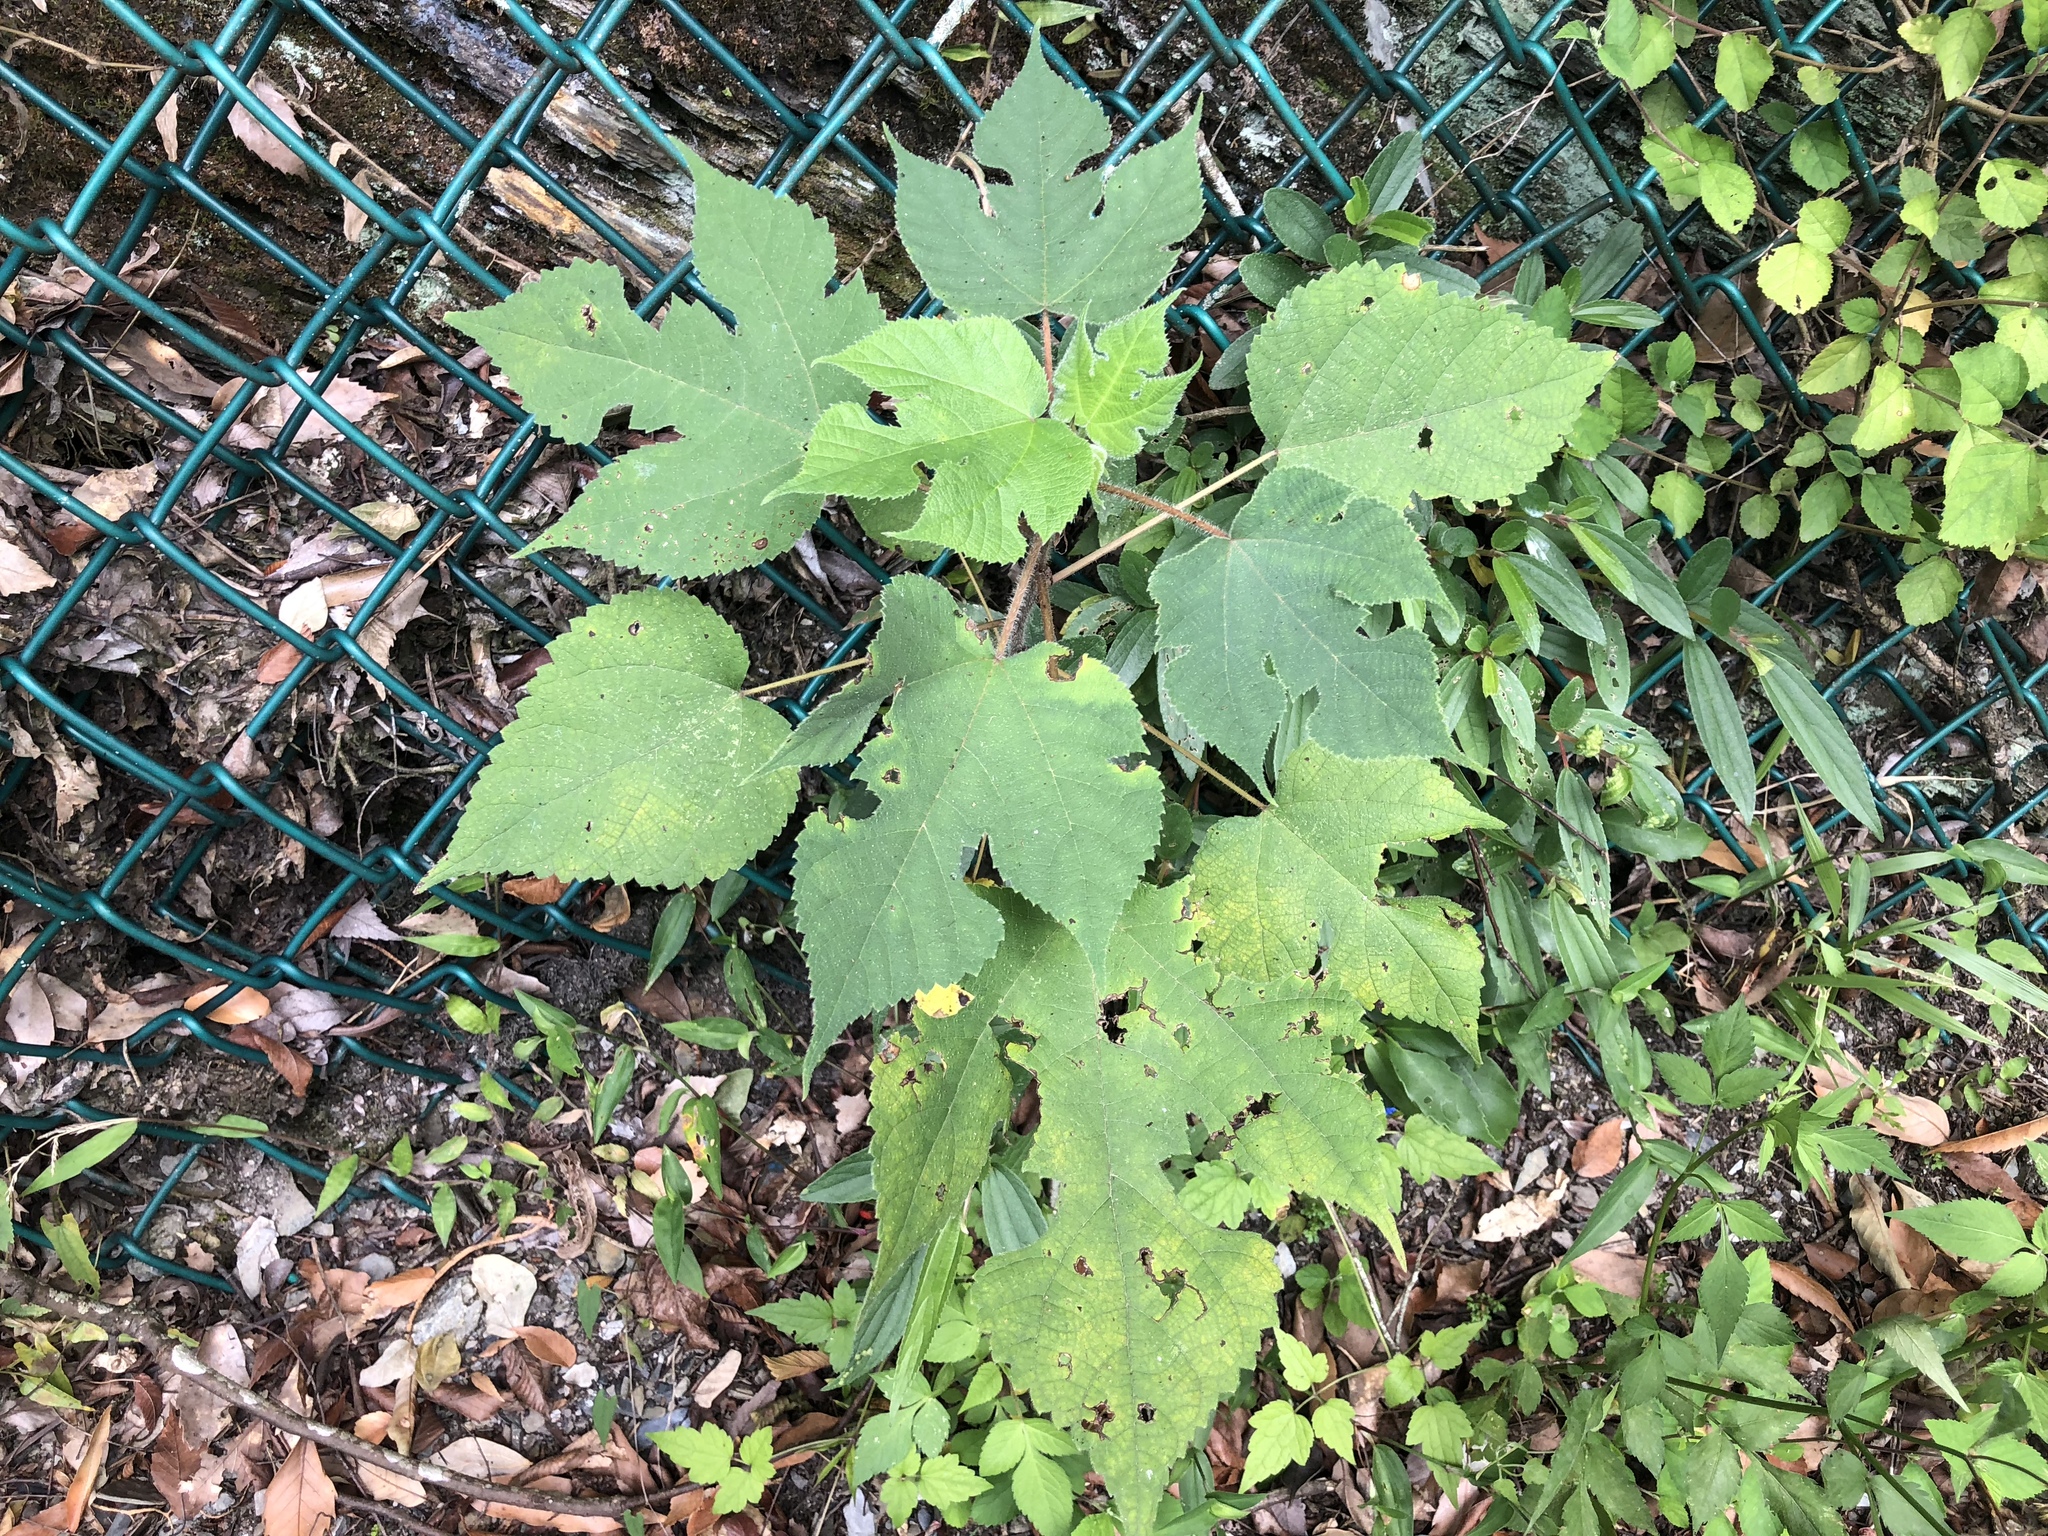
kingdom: Plantae
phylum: Tracheophyta
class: Magnoliopsida
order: Rosales
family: Moraceae
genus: Broussonetia
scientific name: Broussonetia papyrifera
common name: Paper mulberry
